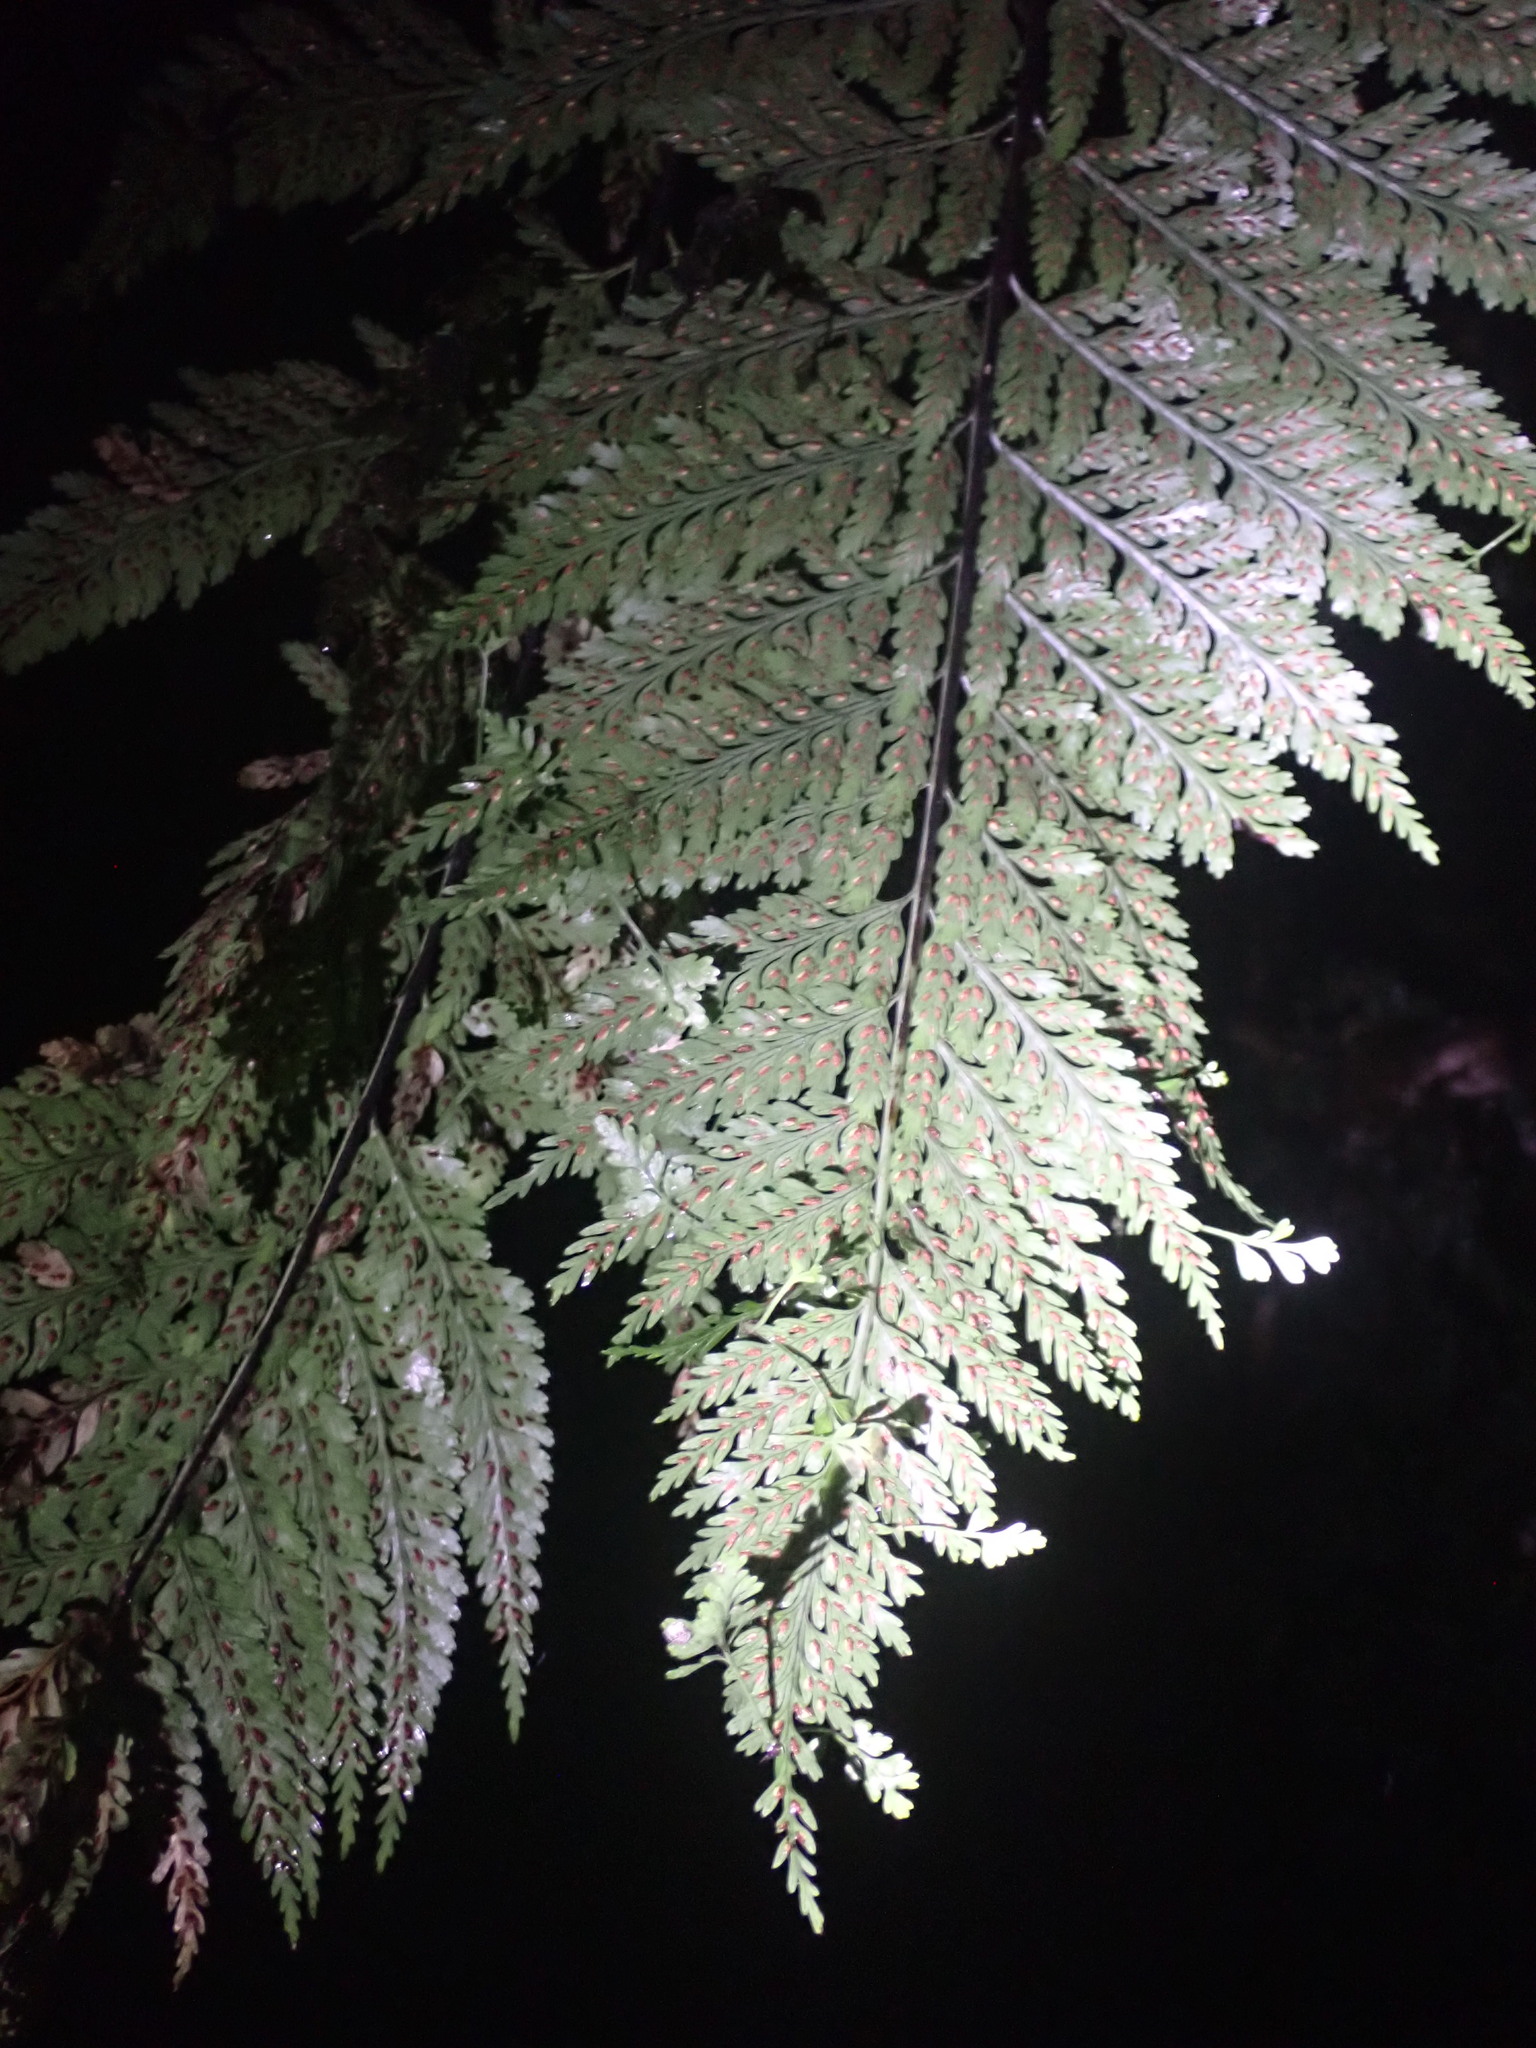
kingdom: Plantae
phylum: Tracheophyta
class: Polypodiopsida
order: Polypodiales
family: Aspleniaceae
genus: Asplenium
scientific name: Asplenium bulbiferum
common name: Mother fern
